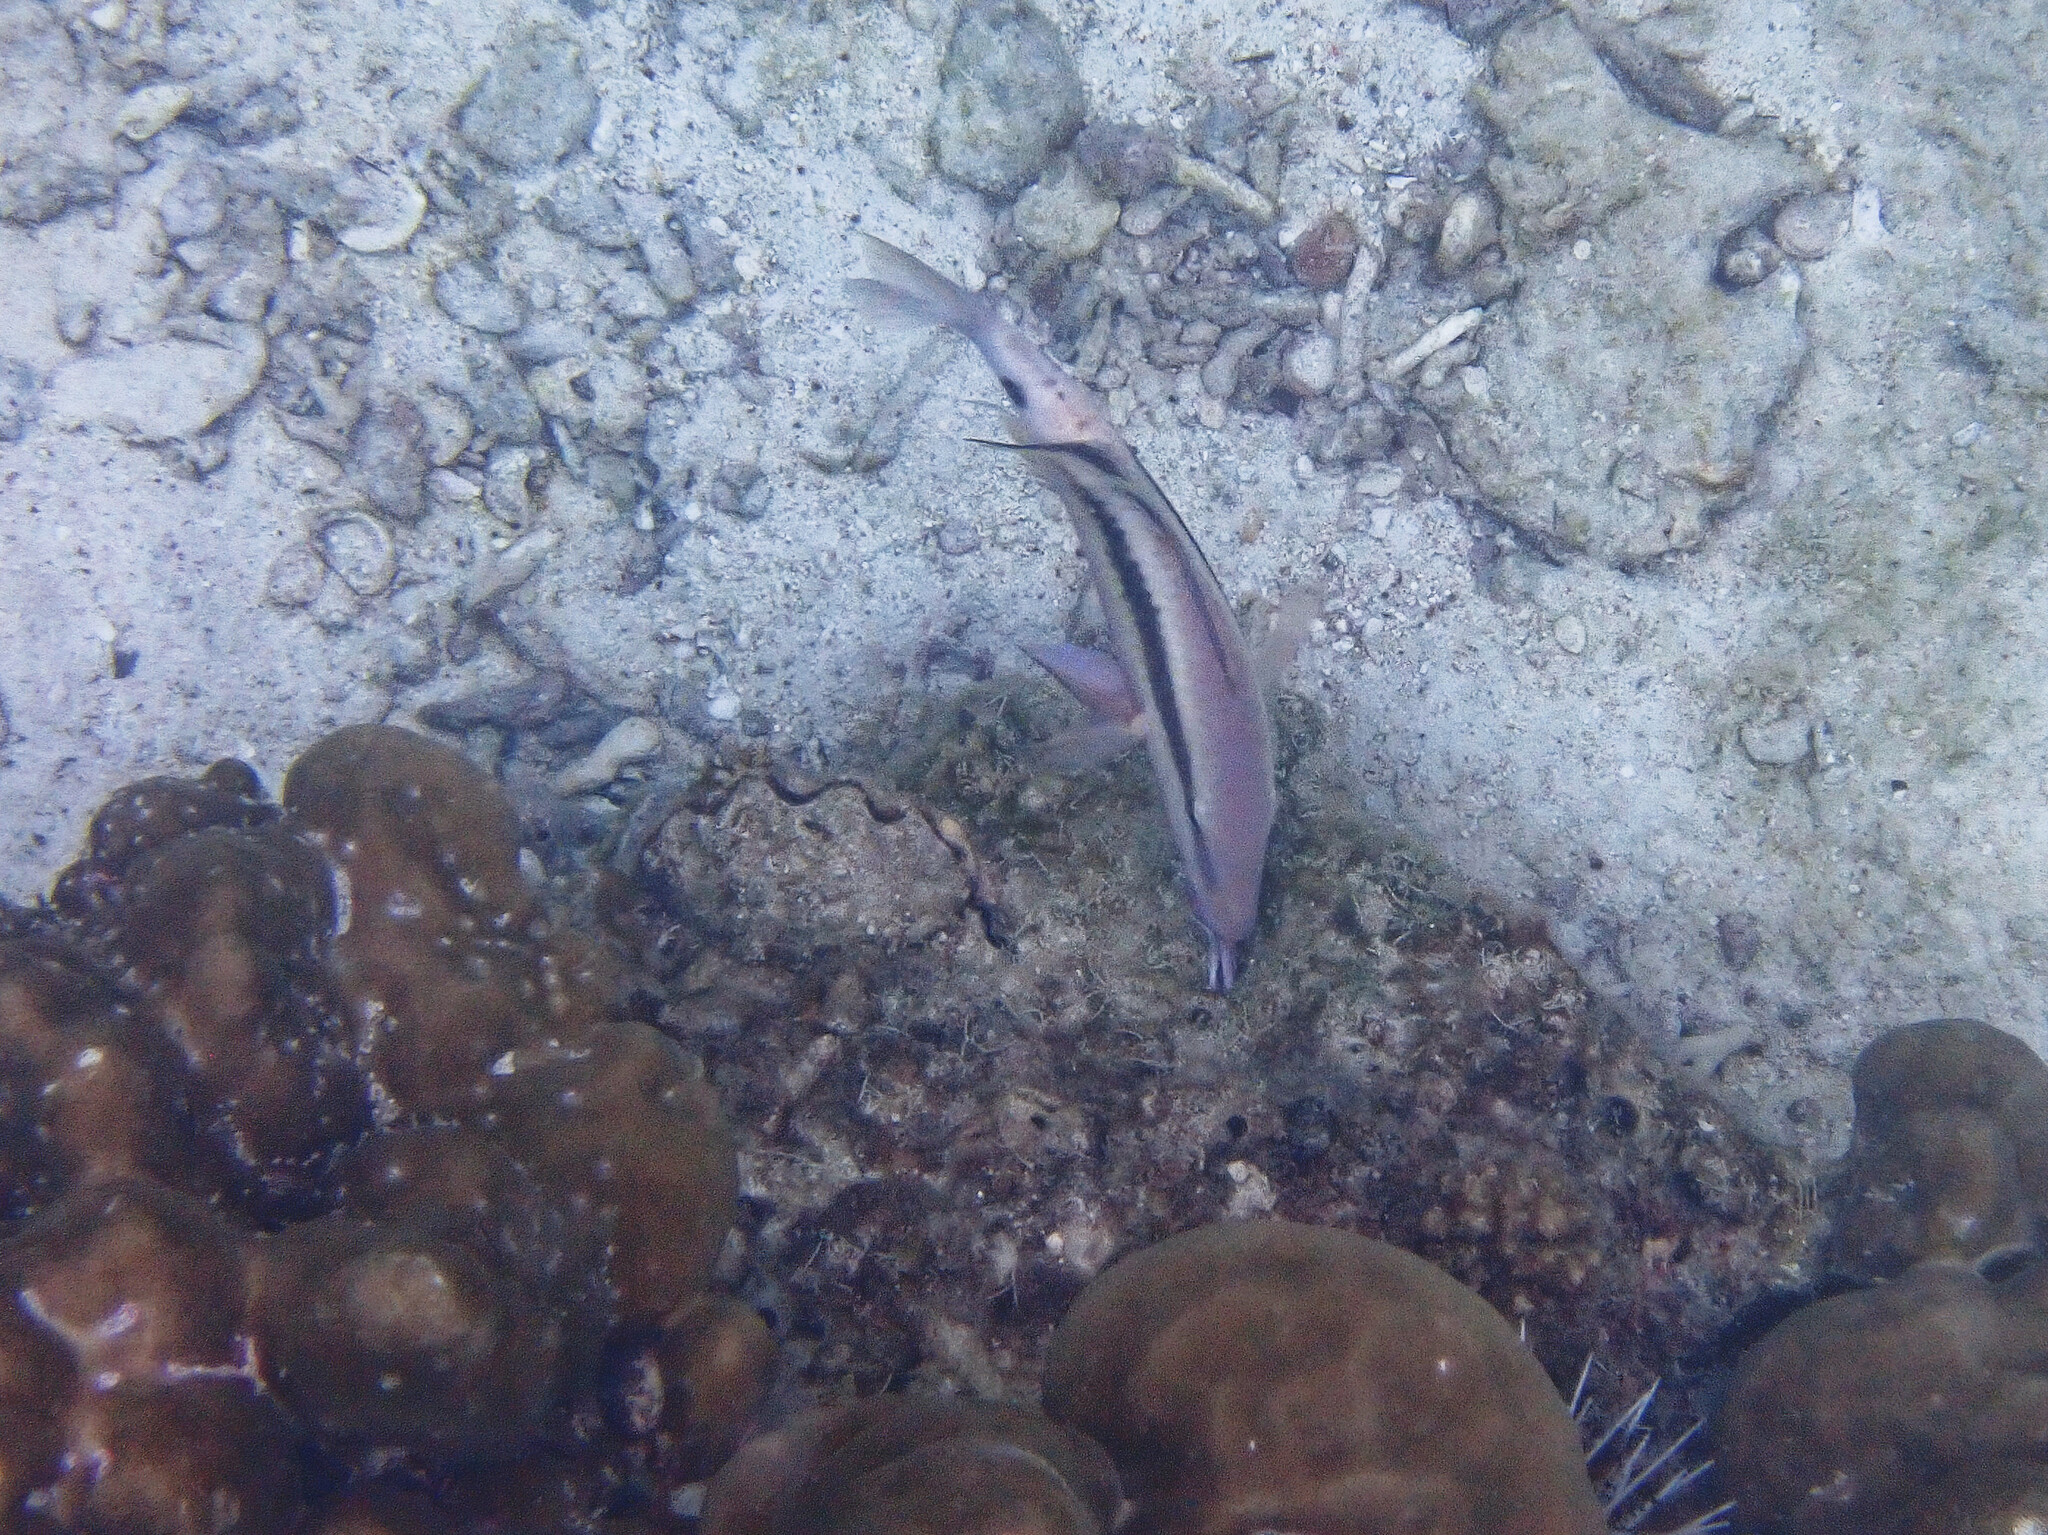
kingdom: Animalia
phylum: Chordata
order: Perciformes
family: Mullidae
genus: Parupeneus
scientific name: Parupeneus macronemus
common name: Long-barbel goatfish
